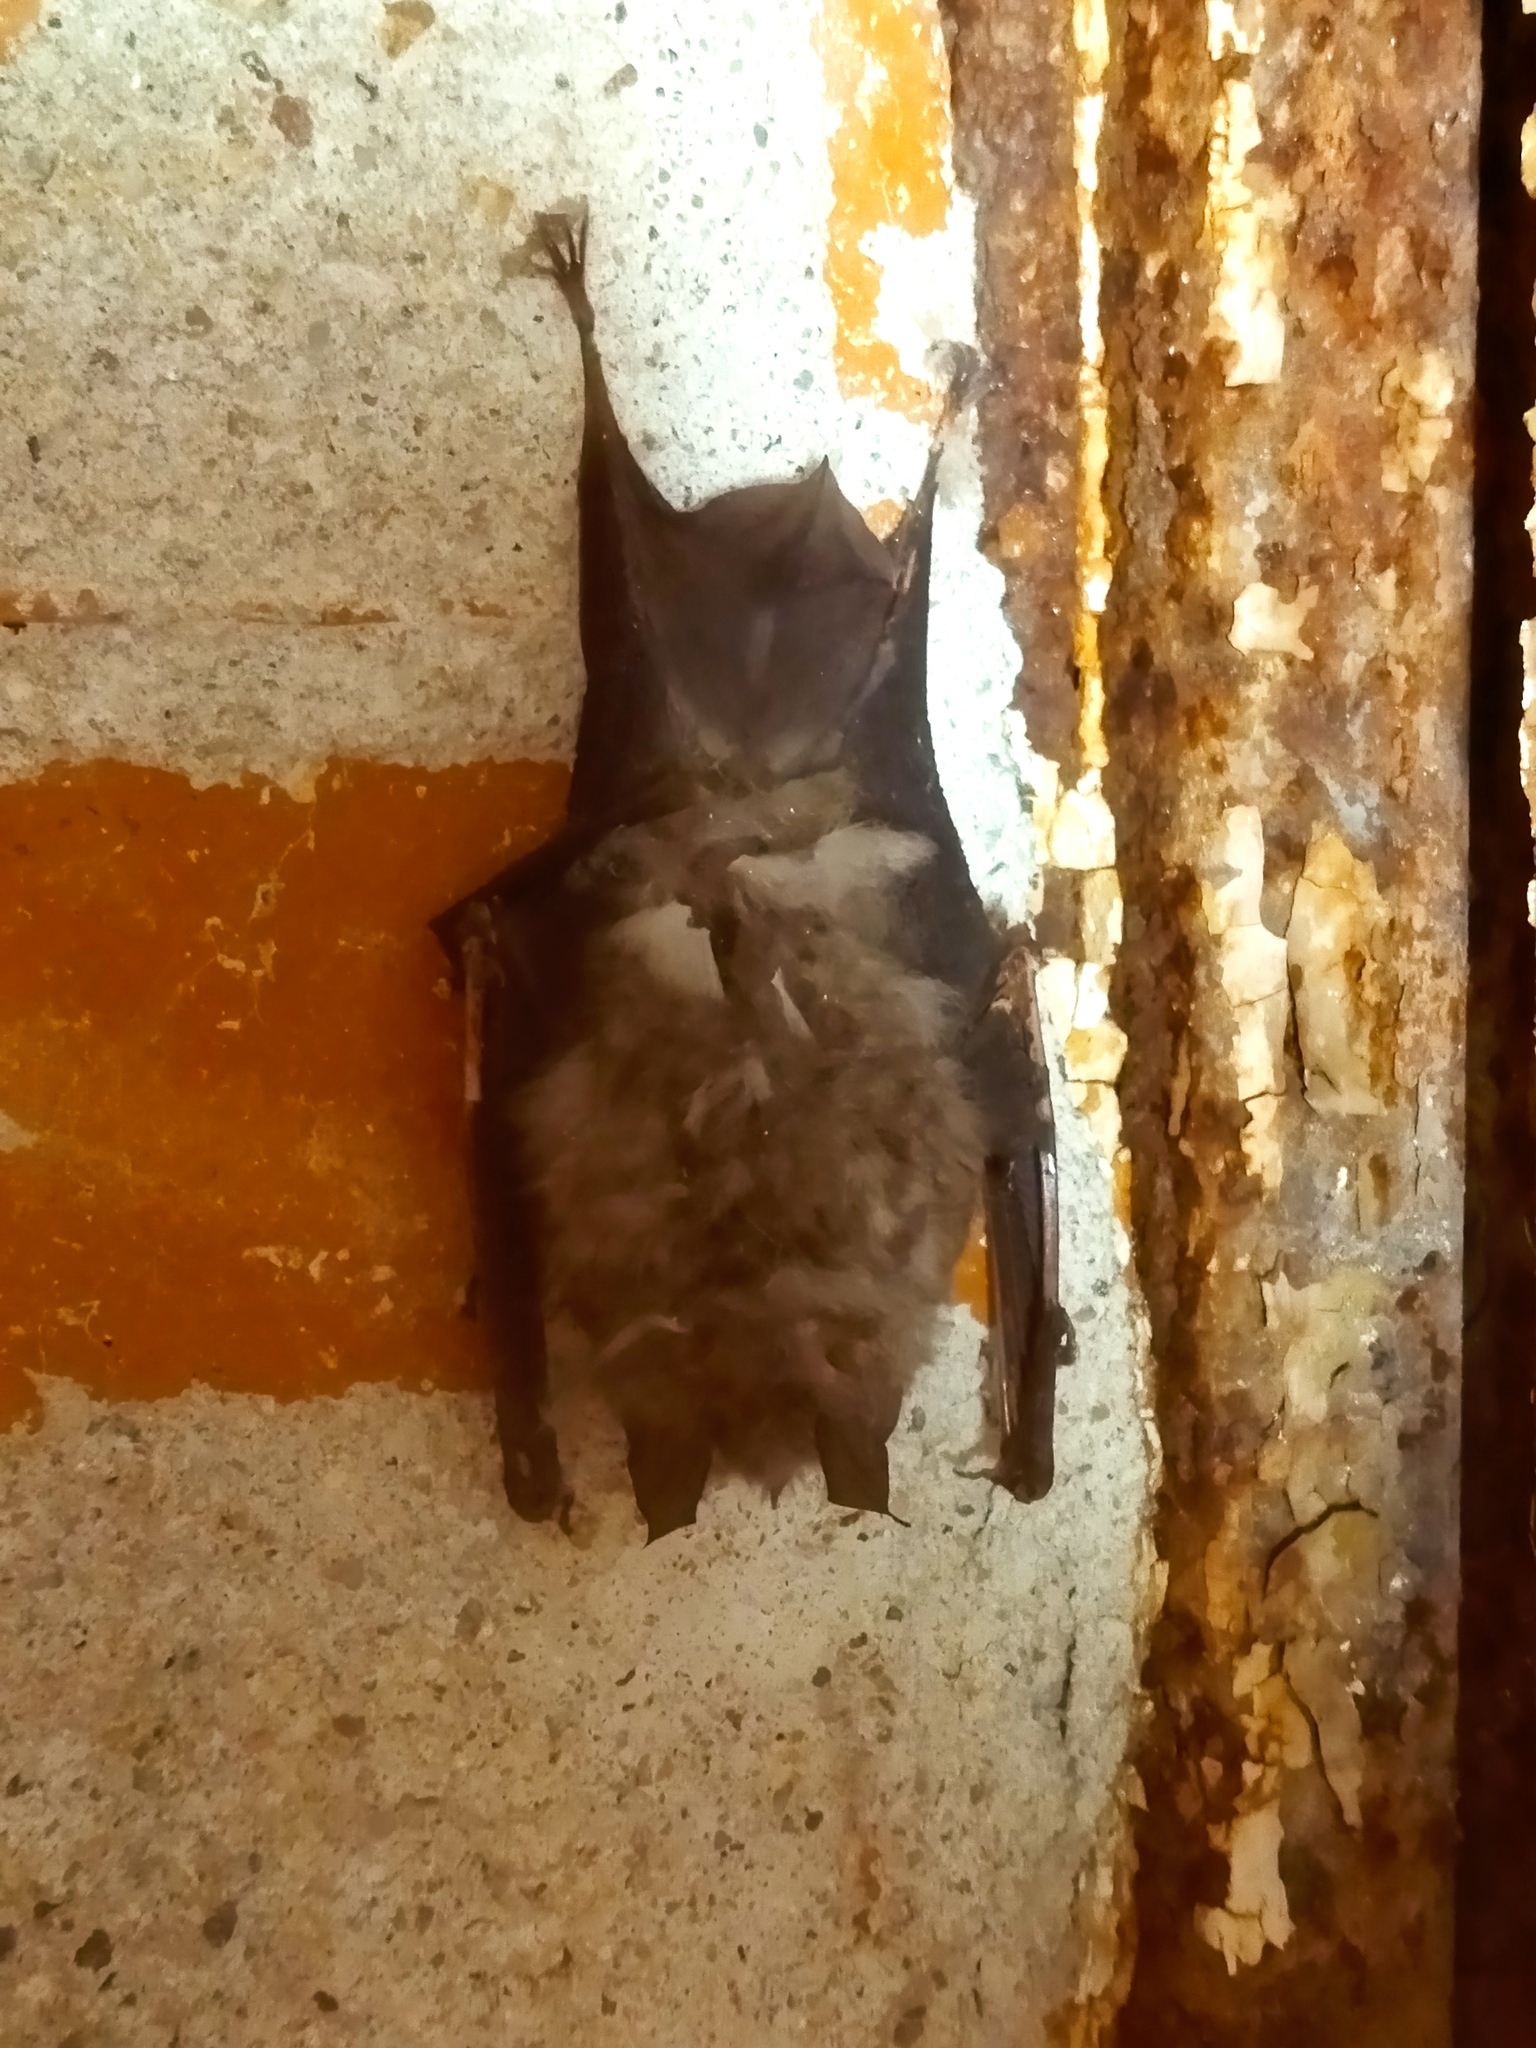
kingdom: Animalia
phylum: Chordata
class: Mammalia
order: Chiroptera
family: Rhinolophidae
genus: Rhinolophus
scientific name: Rhinolophus ferrumequinum
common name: Greater horseshoe bat
